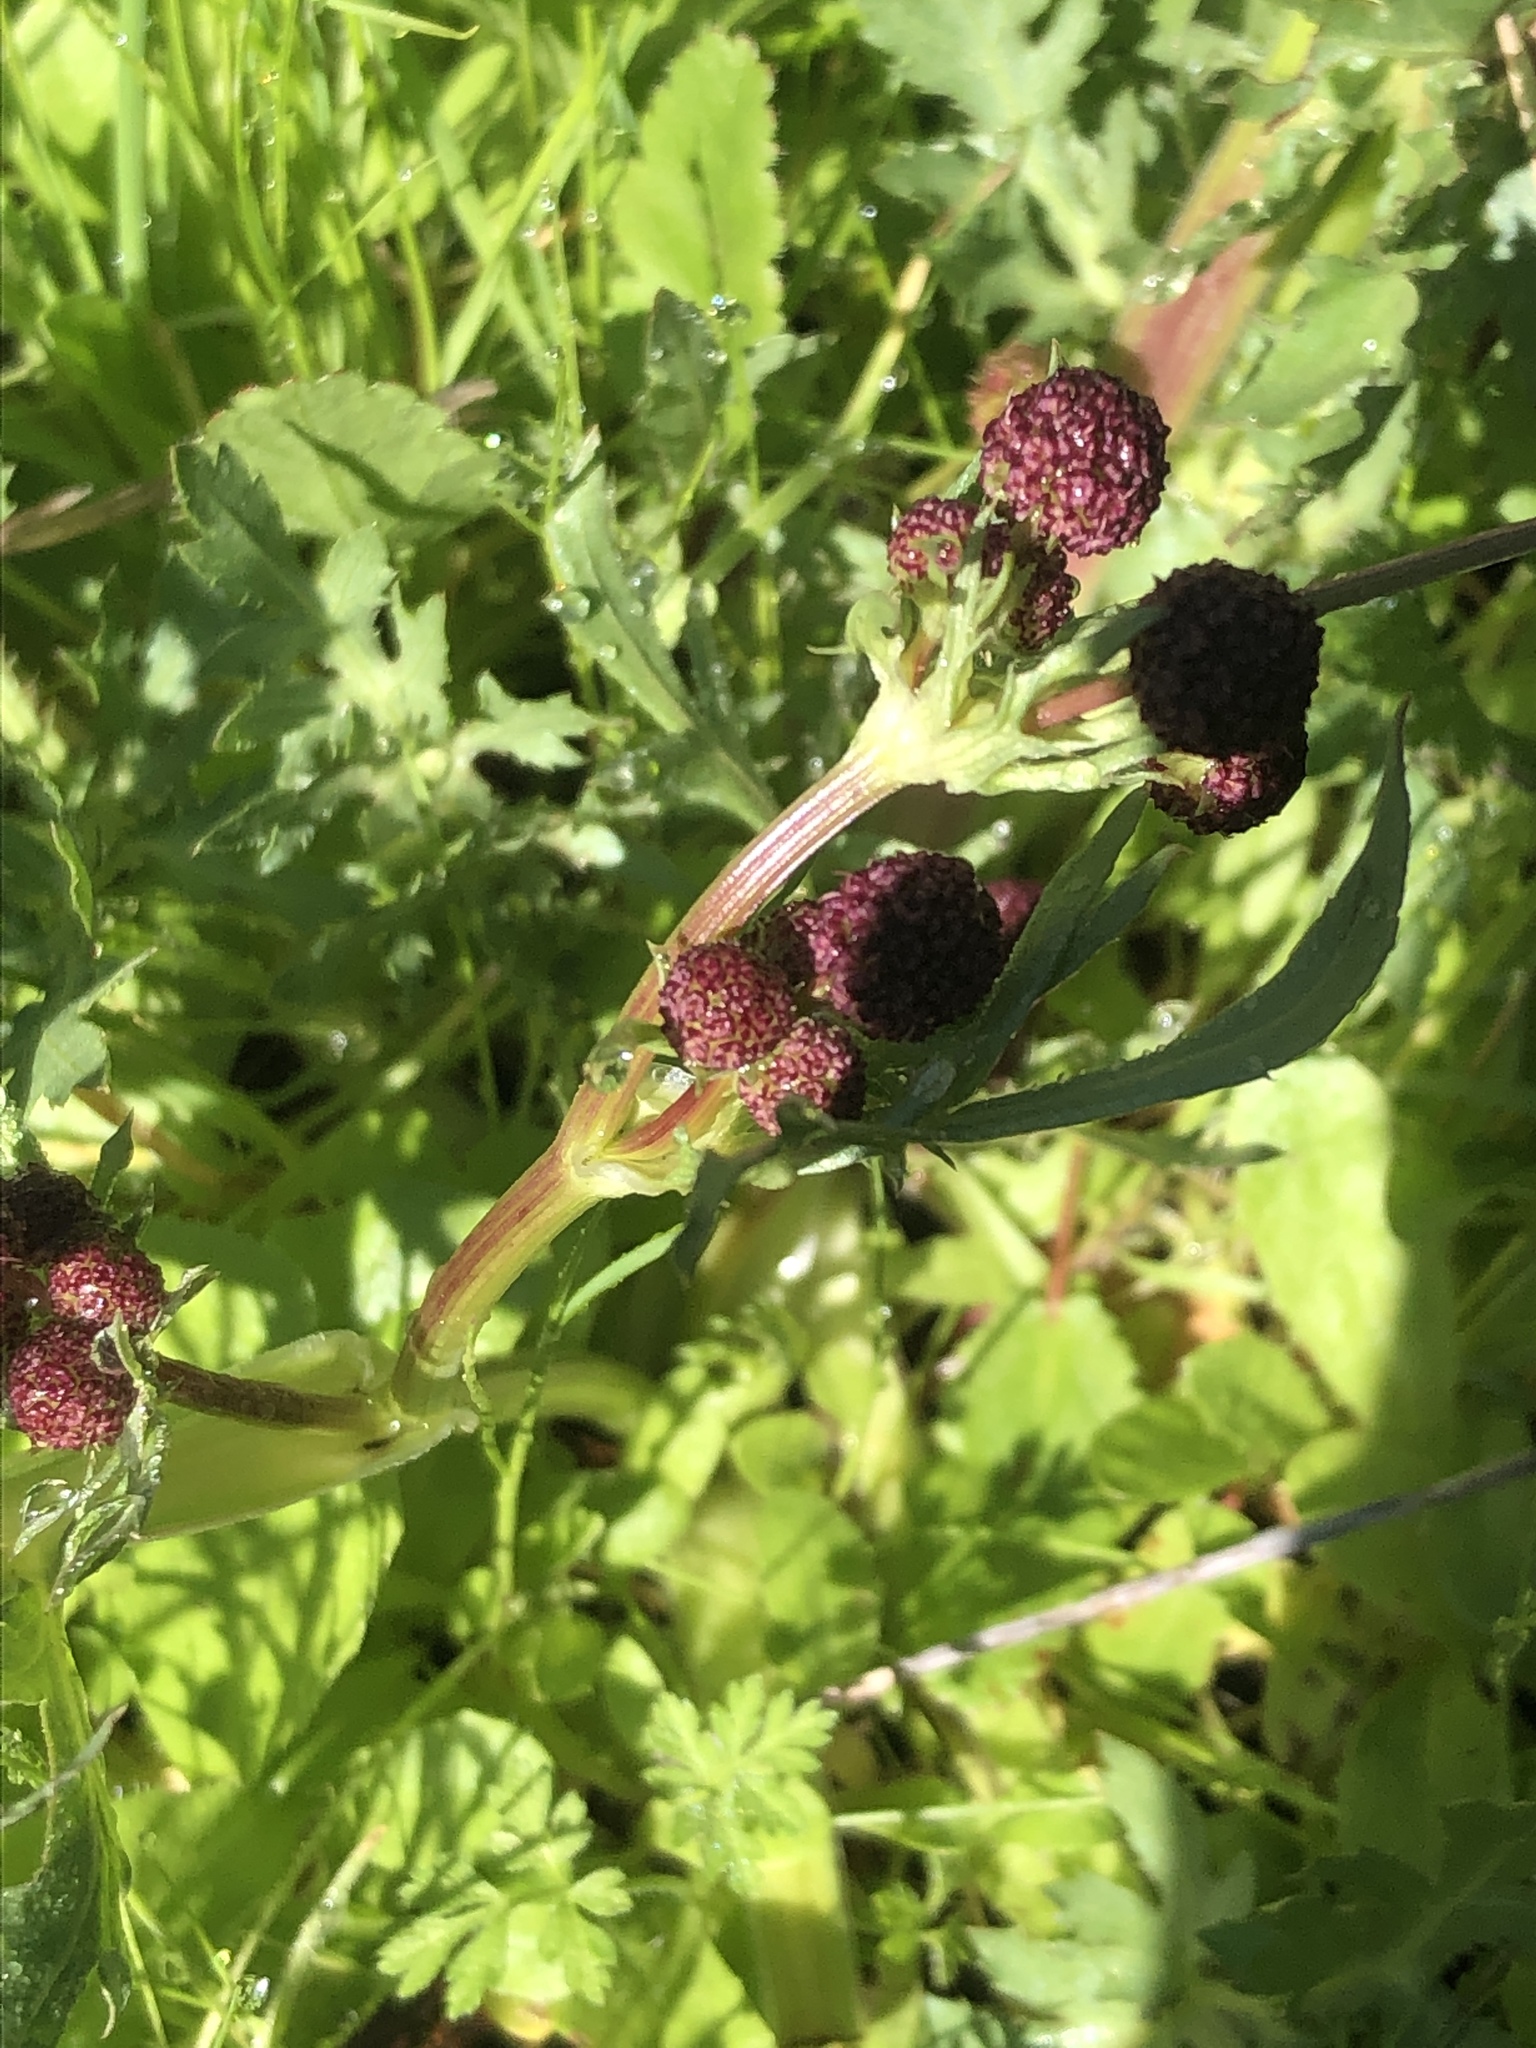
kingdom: Plantae
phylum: Tracheophyta
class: Magnoliopsida
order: Apiales
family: Apiaceae
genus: Sanicula
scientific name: Sanicula bipinnatifida
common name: Shoe-buttons
